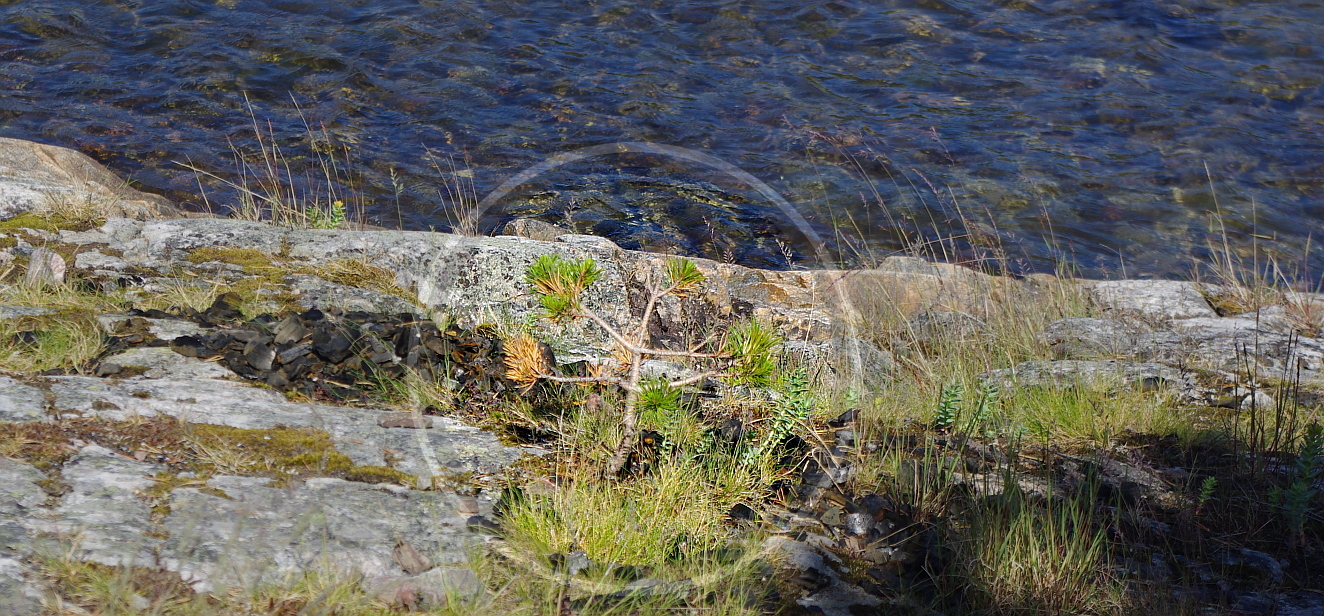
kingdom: Plantae
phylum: Tracheophyta
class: Pinopsida
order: Pinales
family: Pinaceae
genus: Pinus
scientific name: Pinus sylvestris
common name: Scots pine
